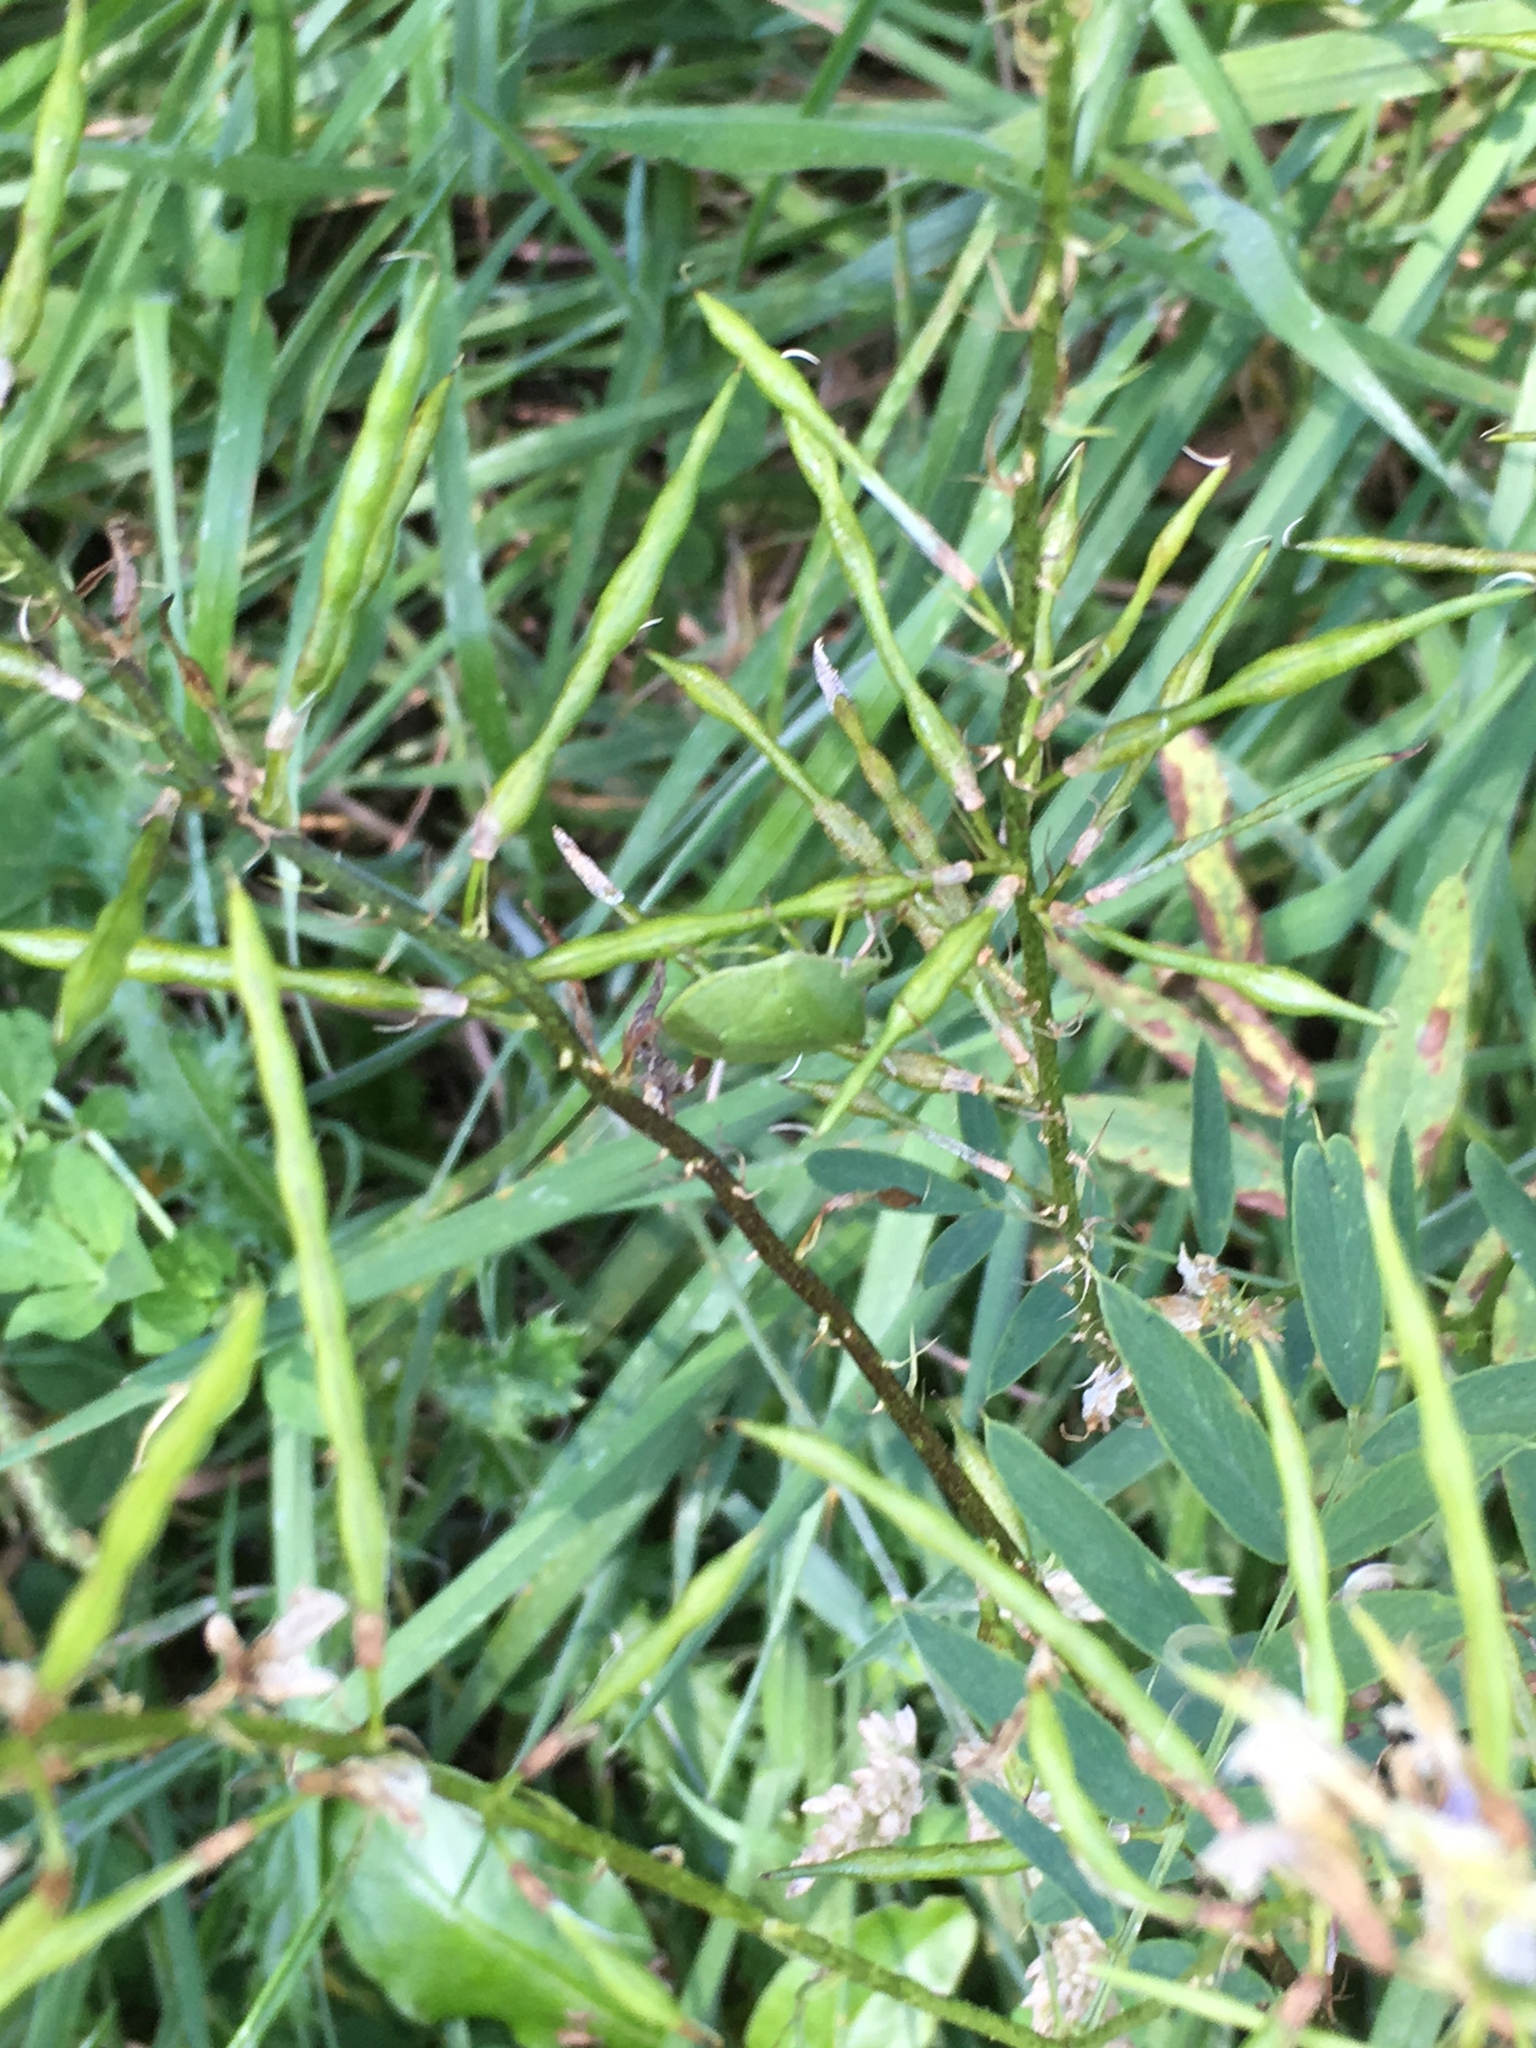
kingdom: Animalia
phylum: Arthropoda
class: Insecta
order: Hemiptera
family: Pentatomidae
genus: Nezara
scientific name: Nezara viridula
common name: Southern green stink bug
